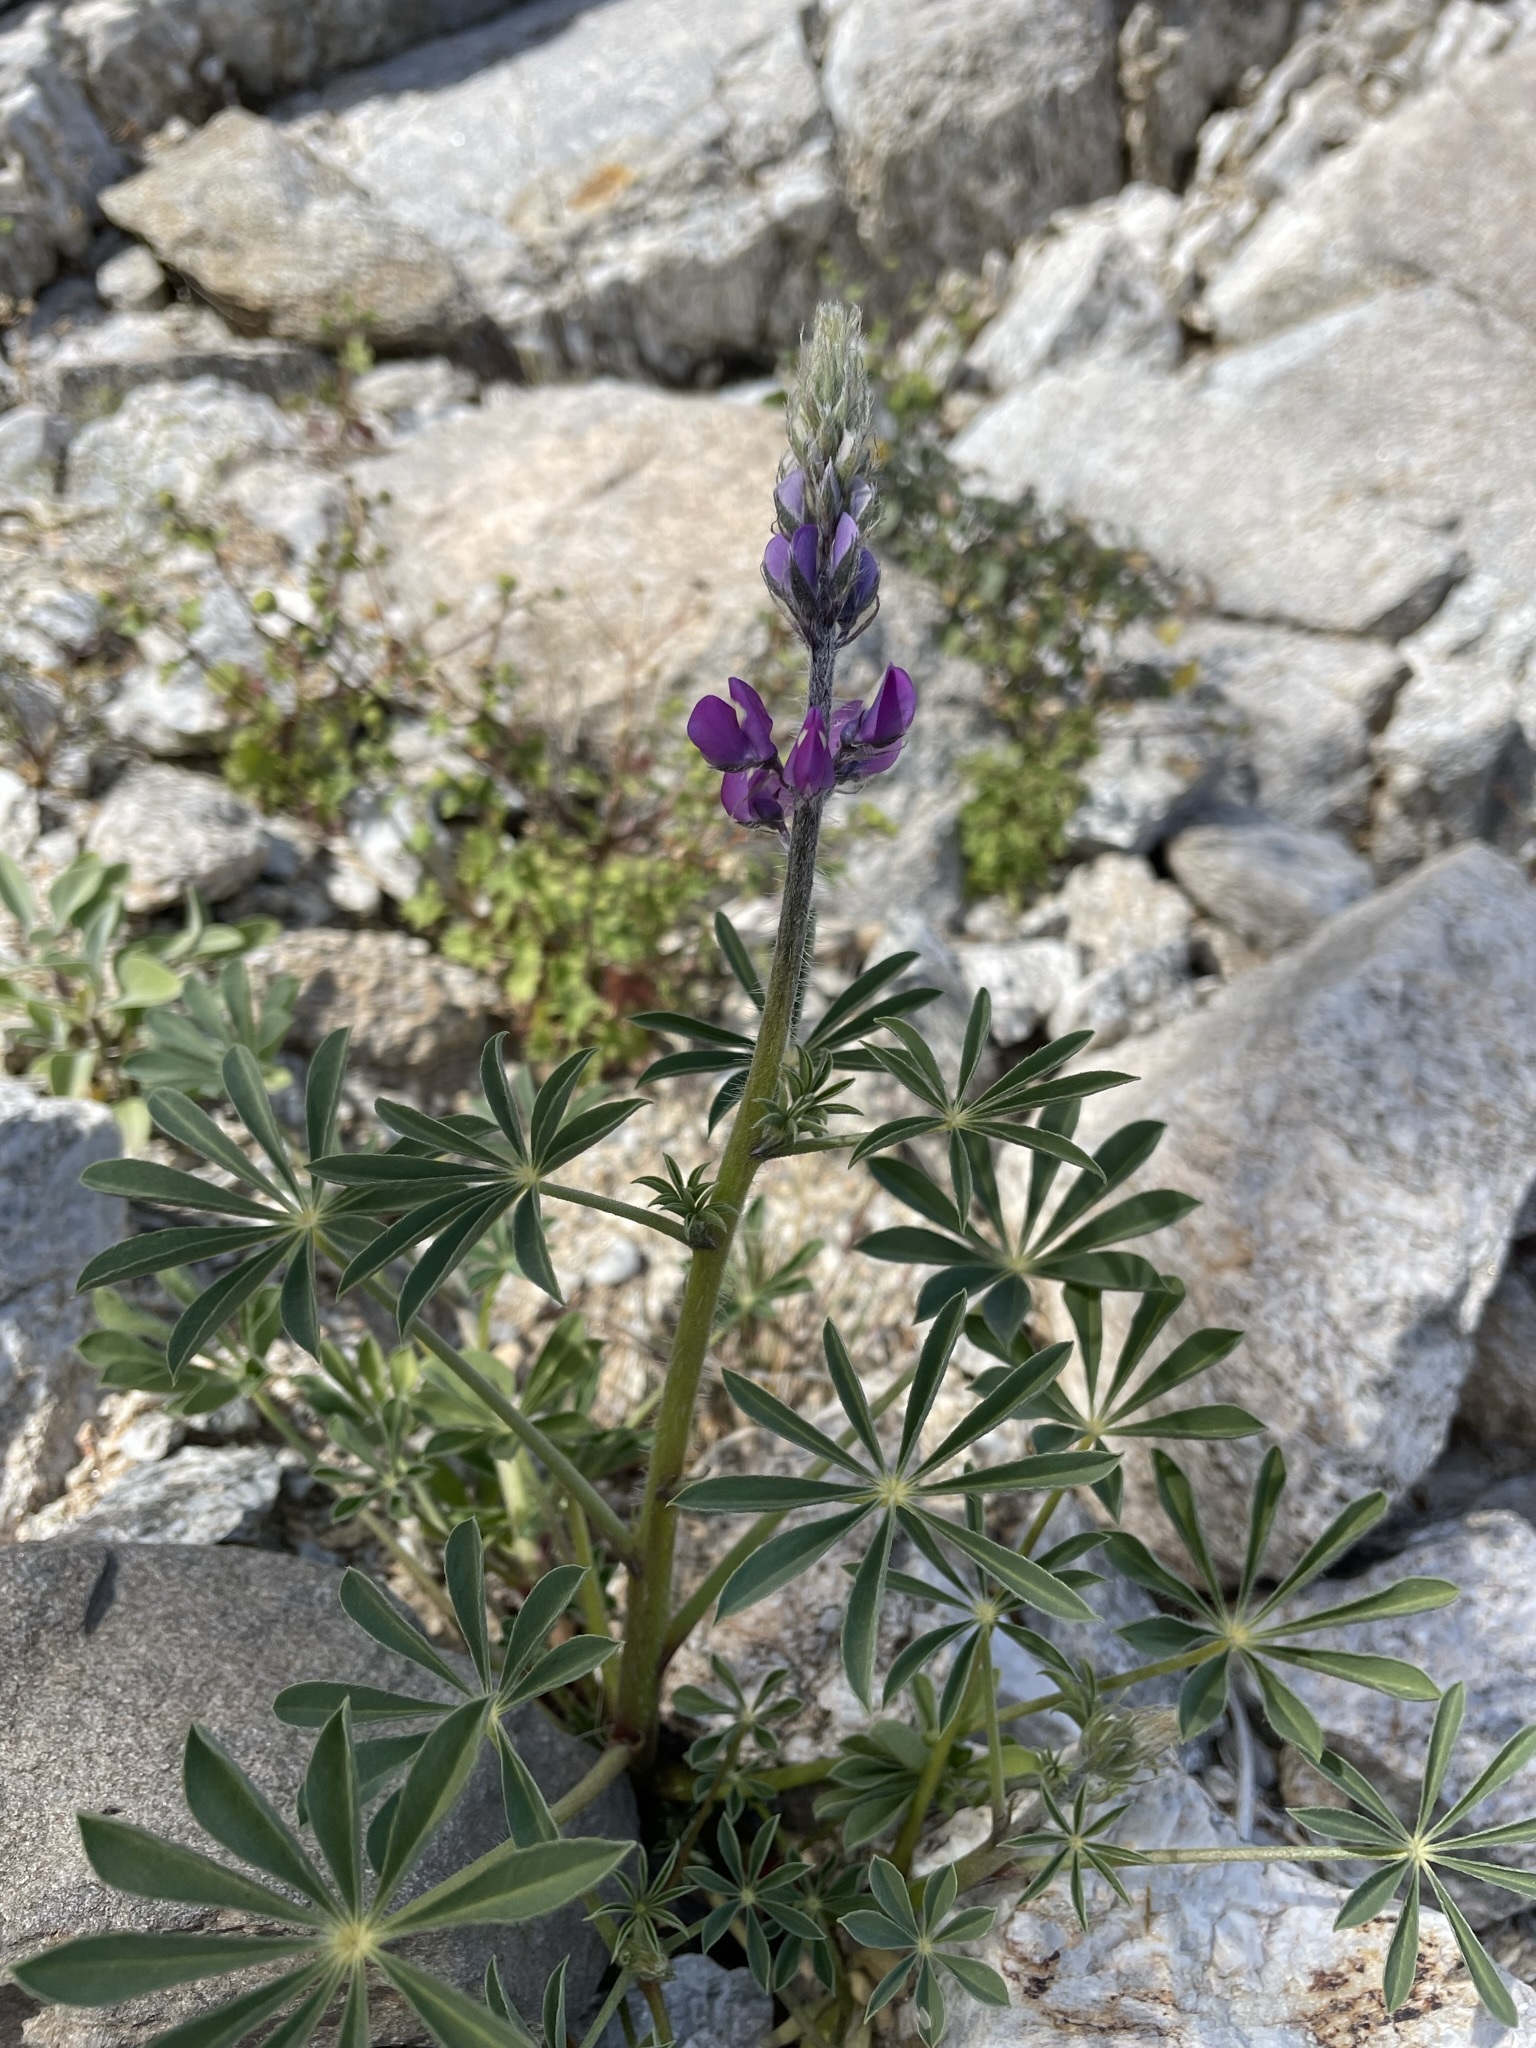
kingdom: Plantae
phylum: Tracheophyta
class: Magnoliopsida
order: Fabales
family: Fabaceae
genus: Lupinus
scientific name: Lupinus arizonicus
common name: Arizona lupine
